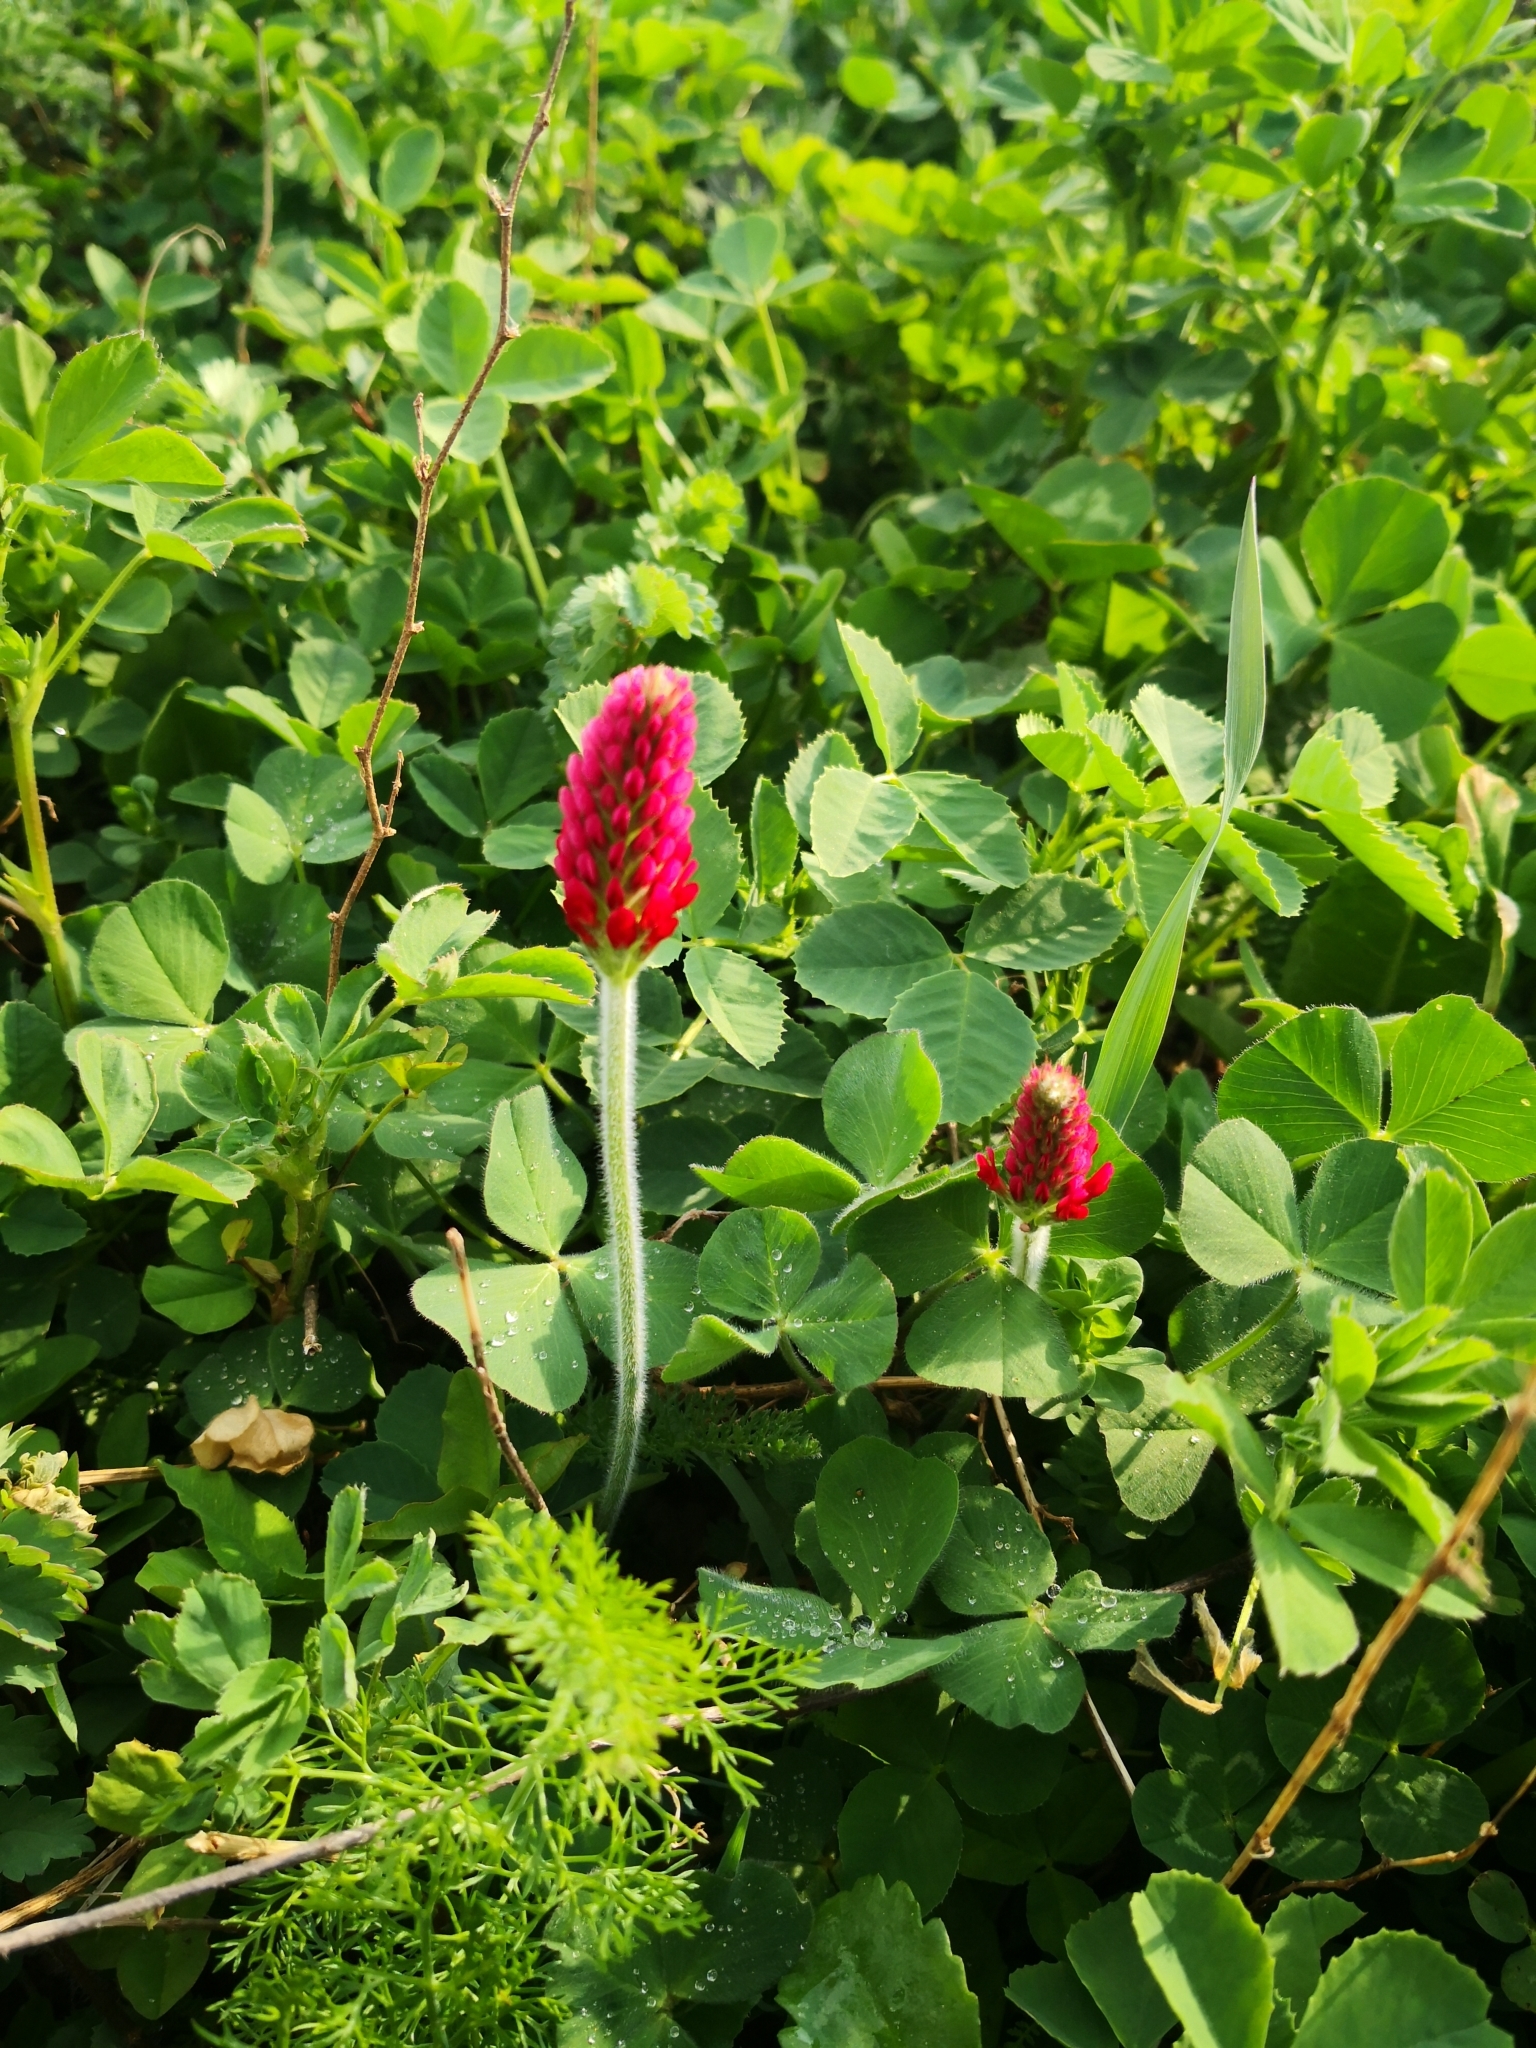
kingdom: Plantae
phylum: Tracheophyta
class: Magnoliopsida
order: Fabales
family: Fabaceae
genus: Trifolium
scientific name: Trifolium incarnatum
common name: Crimson clover
